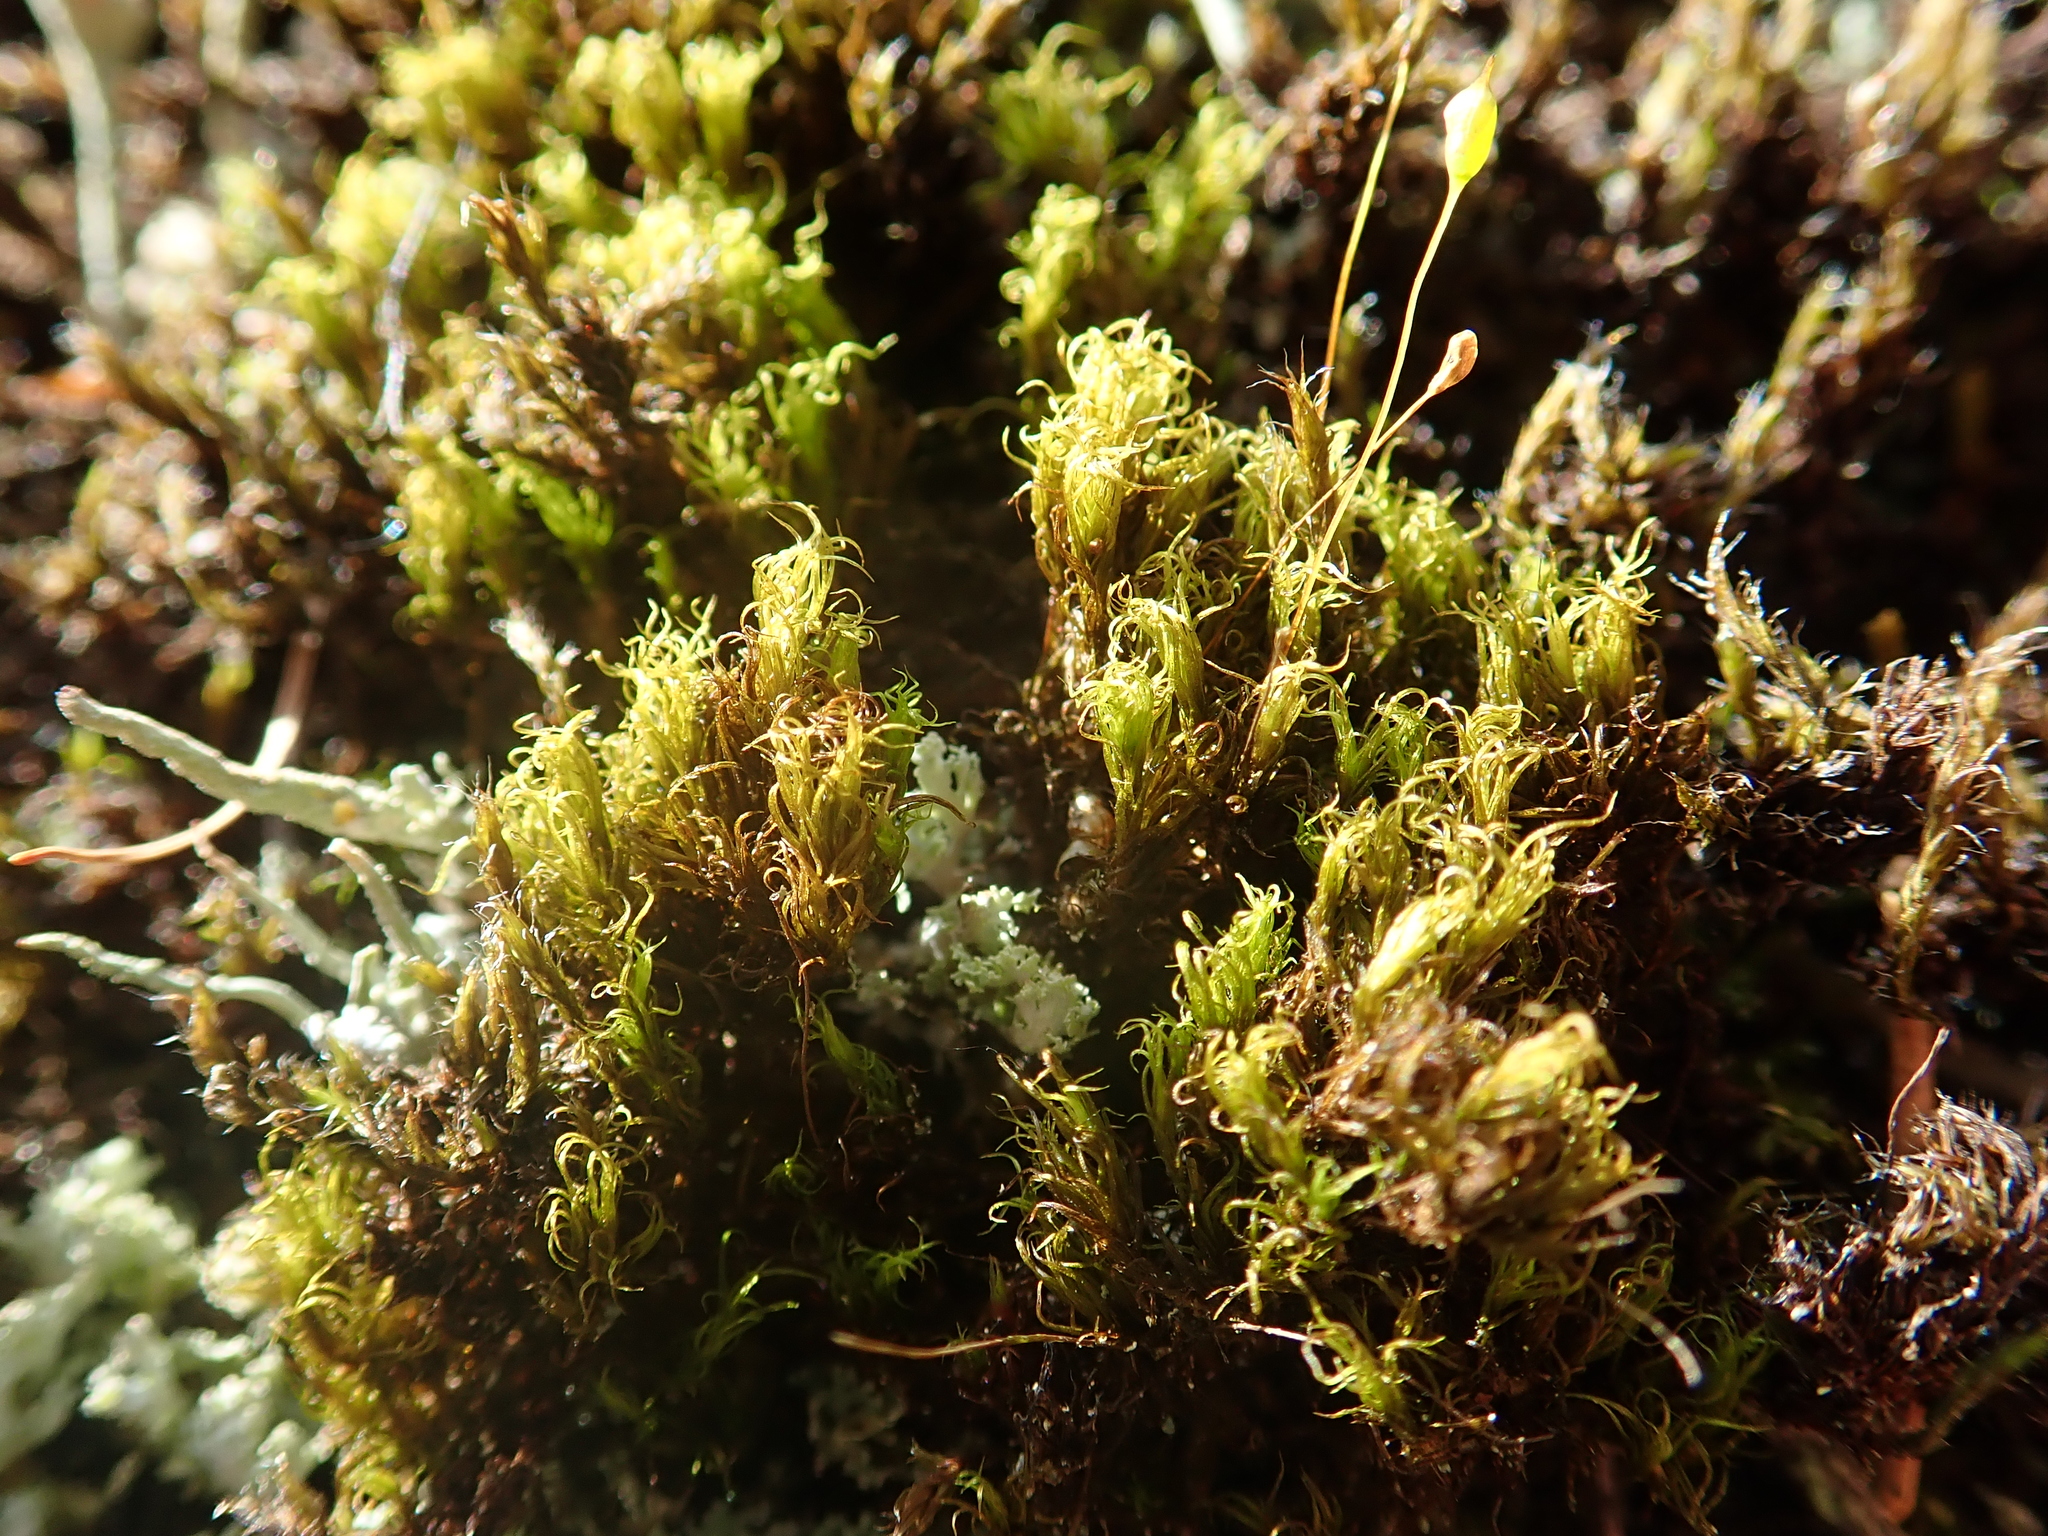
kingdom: Plantae
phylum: Bryophyta
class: Bryopsida
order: Dicranales
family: Rhabdoweisiaceae
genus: Cynodontium
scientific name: Cynodontium polycarpon
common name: Many-fruited dogtooth moss
